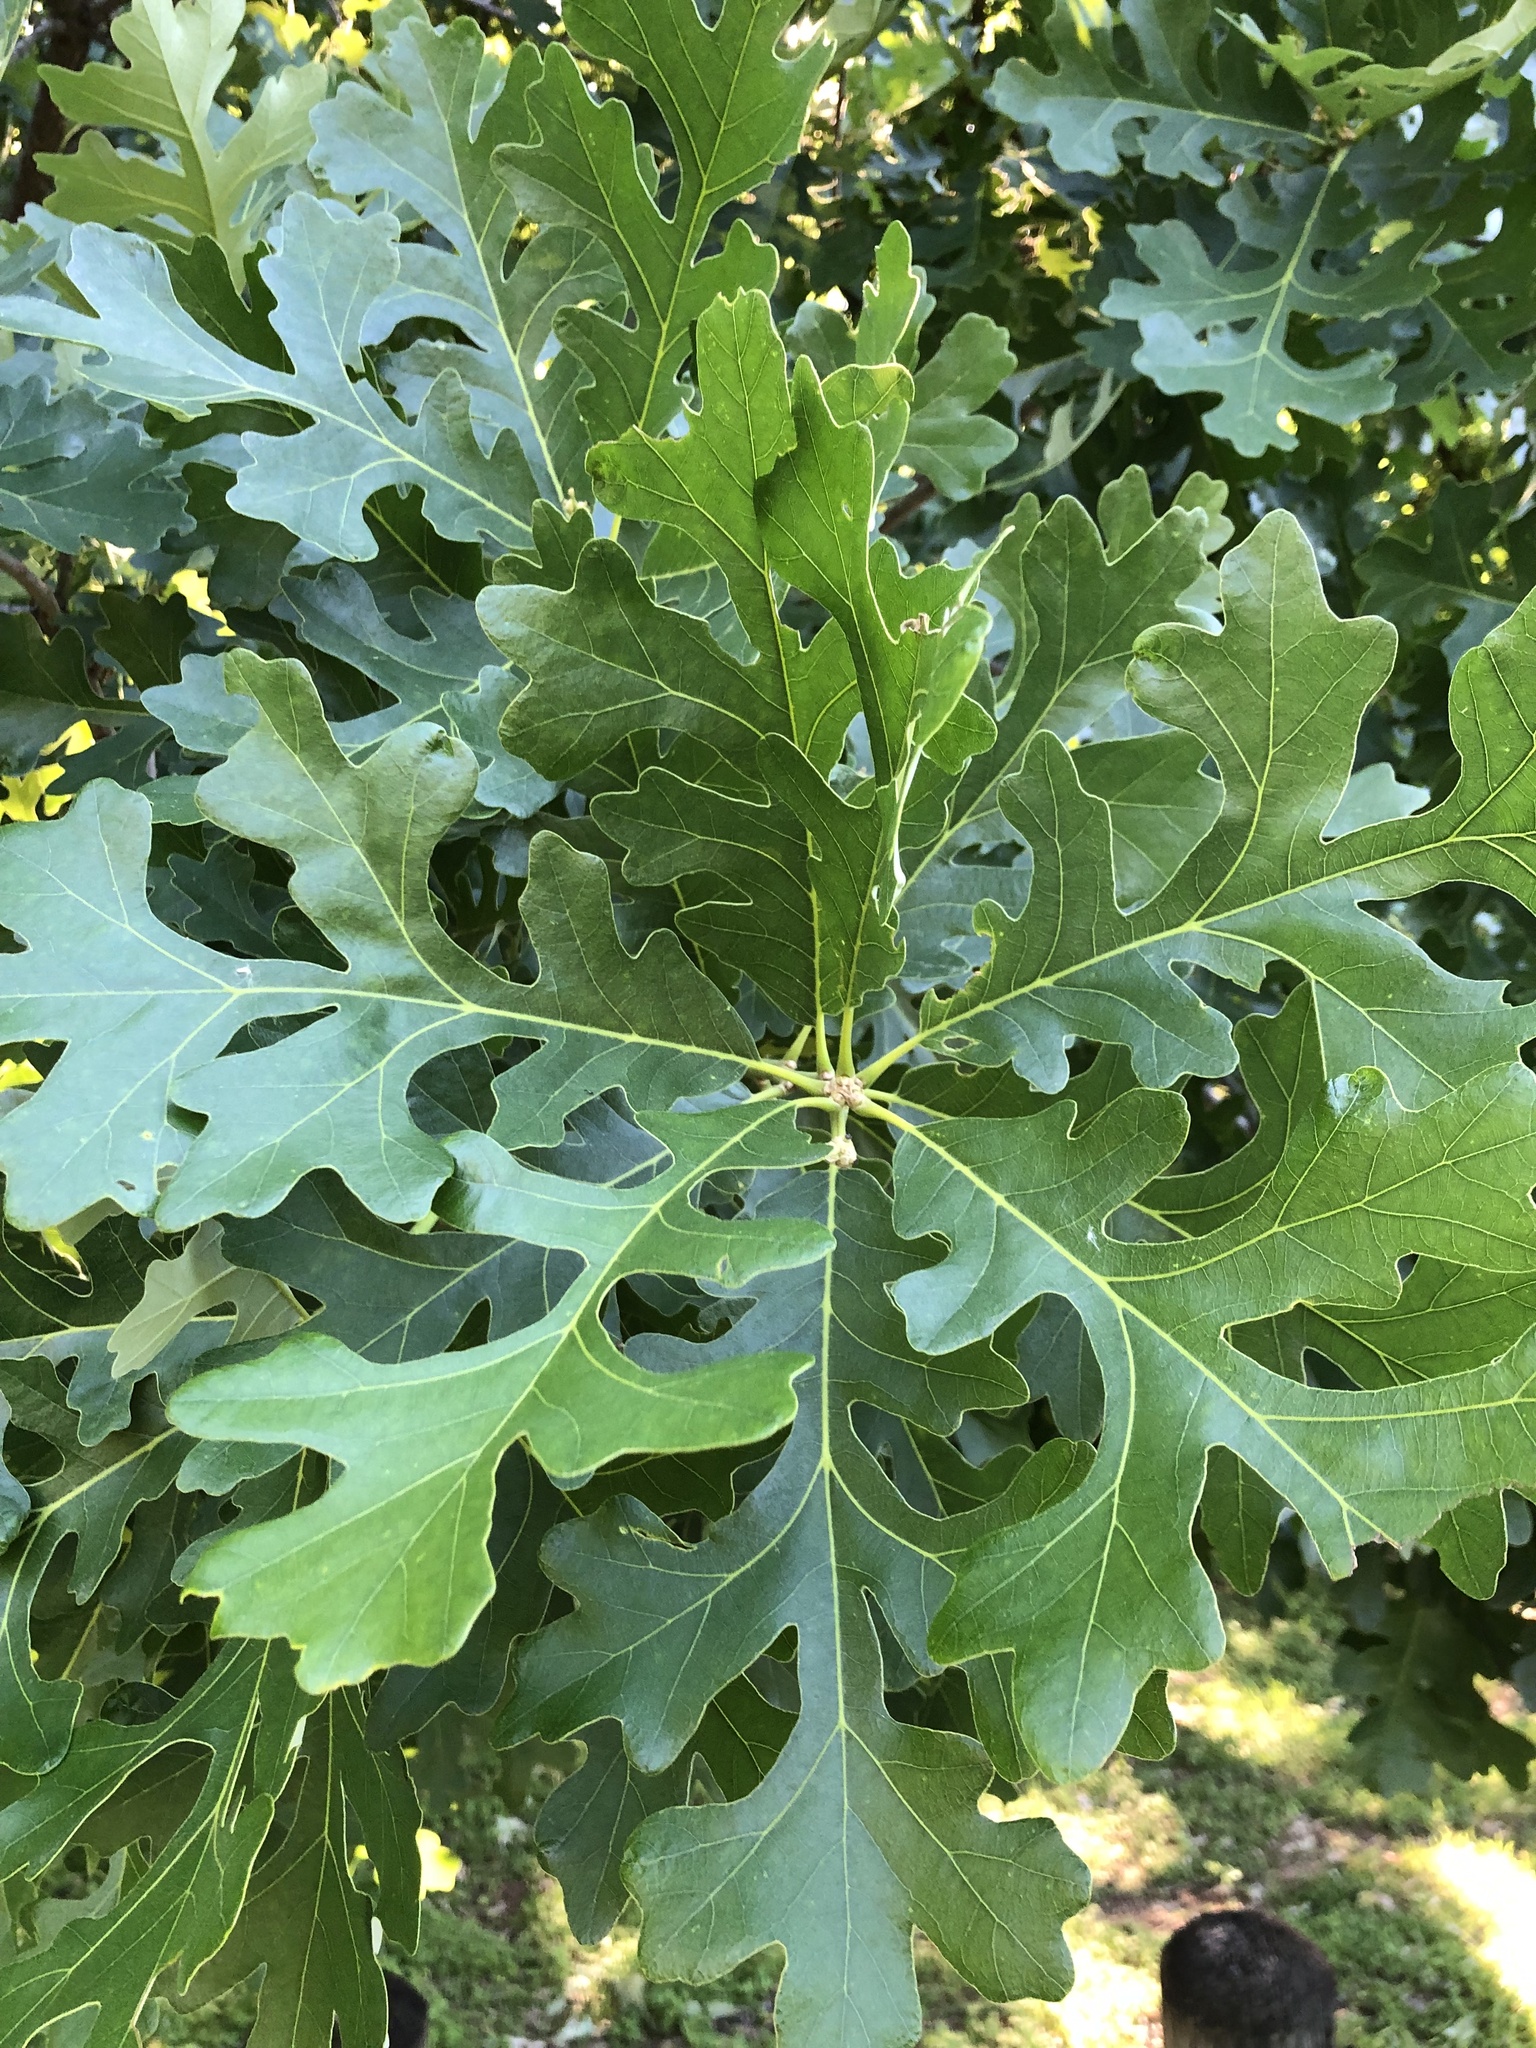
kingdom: Plantae
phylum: Tracheophyta
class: Magnoliopsida
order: Fagales
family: Fagaceae
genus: Quercus
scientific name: Quercus macrocarpa
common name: Bur oak
